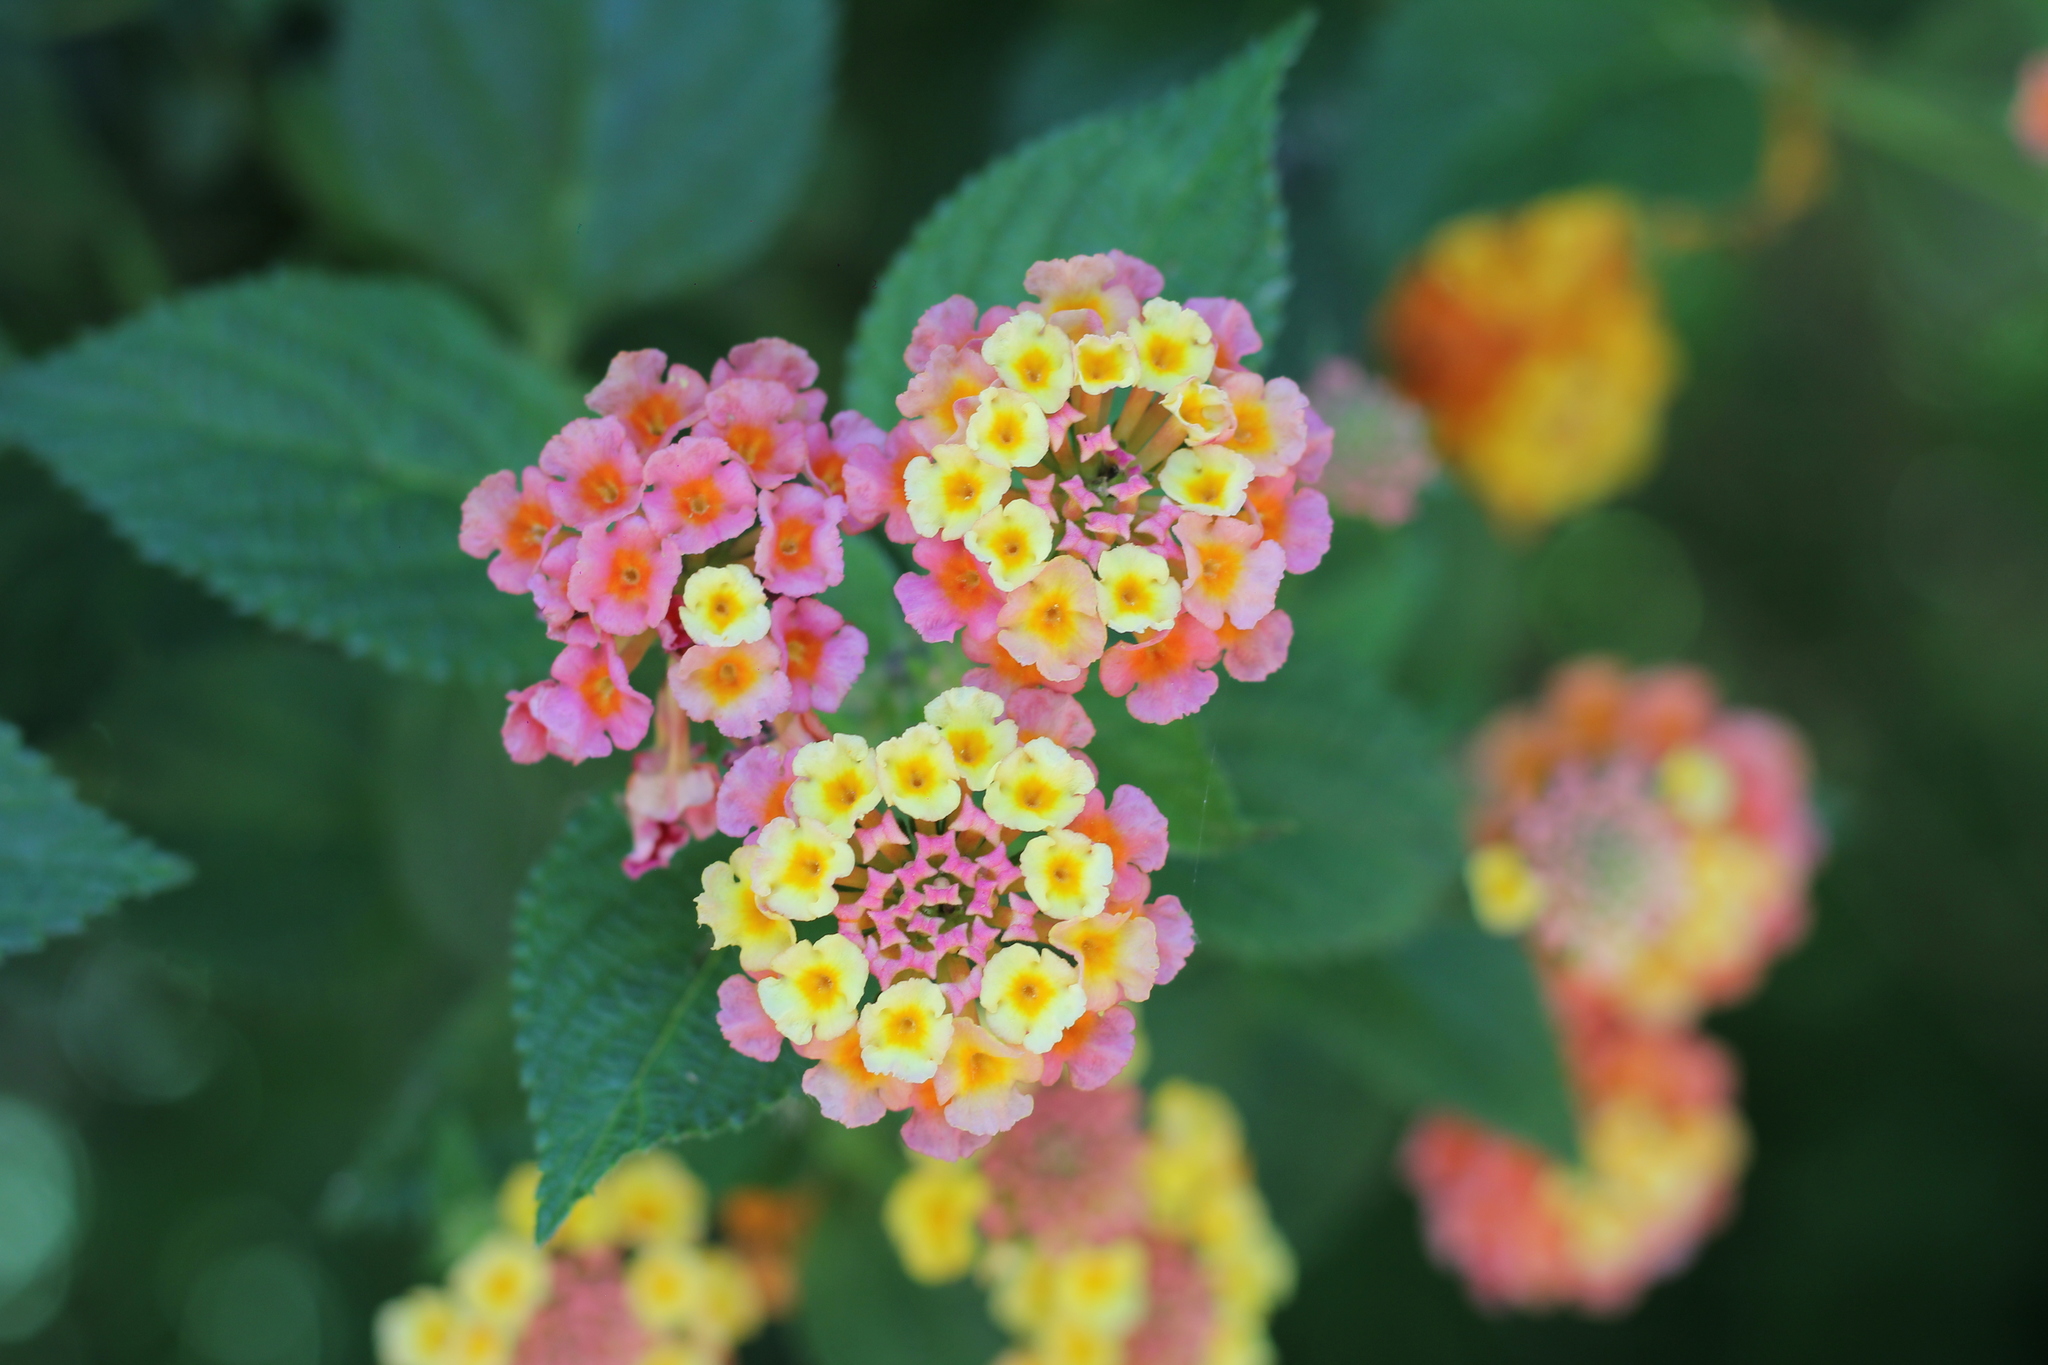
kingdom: Plantae
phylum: Tracheophyta
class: Magnoliopsida
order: Lamiales
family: Verbenaceae
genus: Lantana
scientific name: Lantana camara
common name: Lantana
